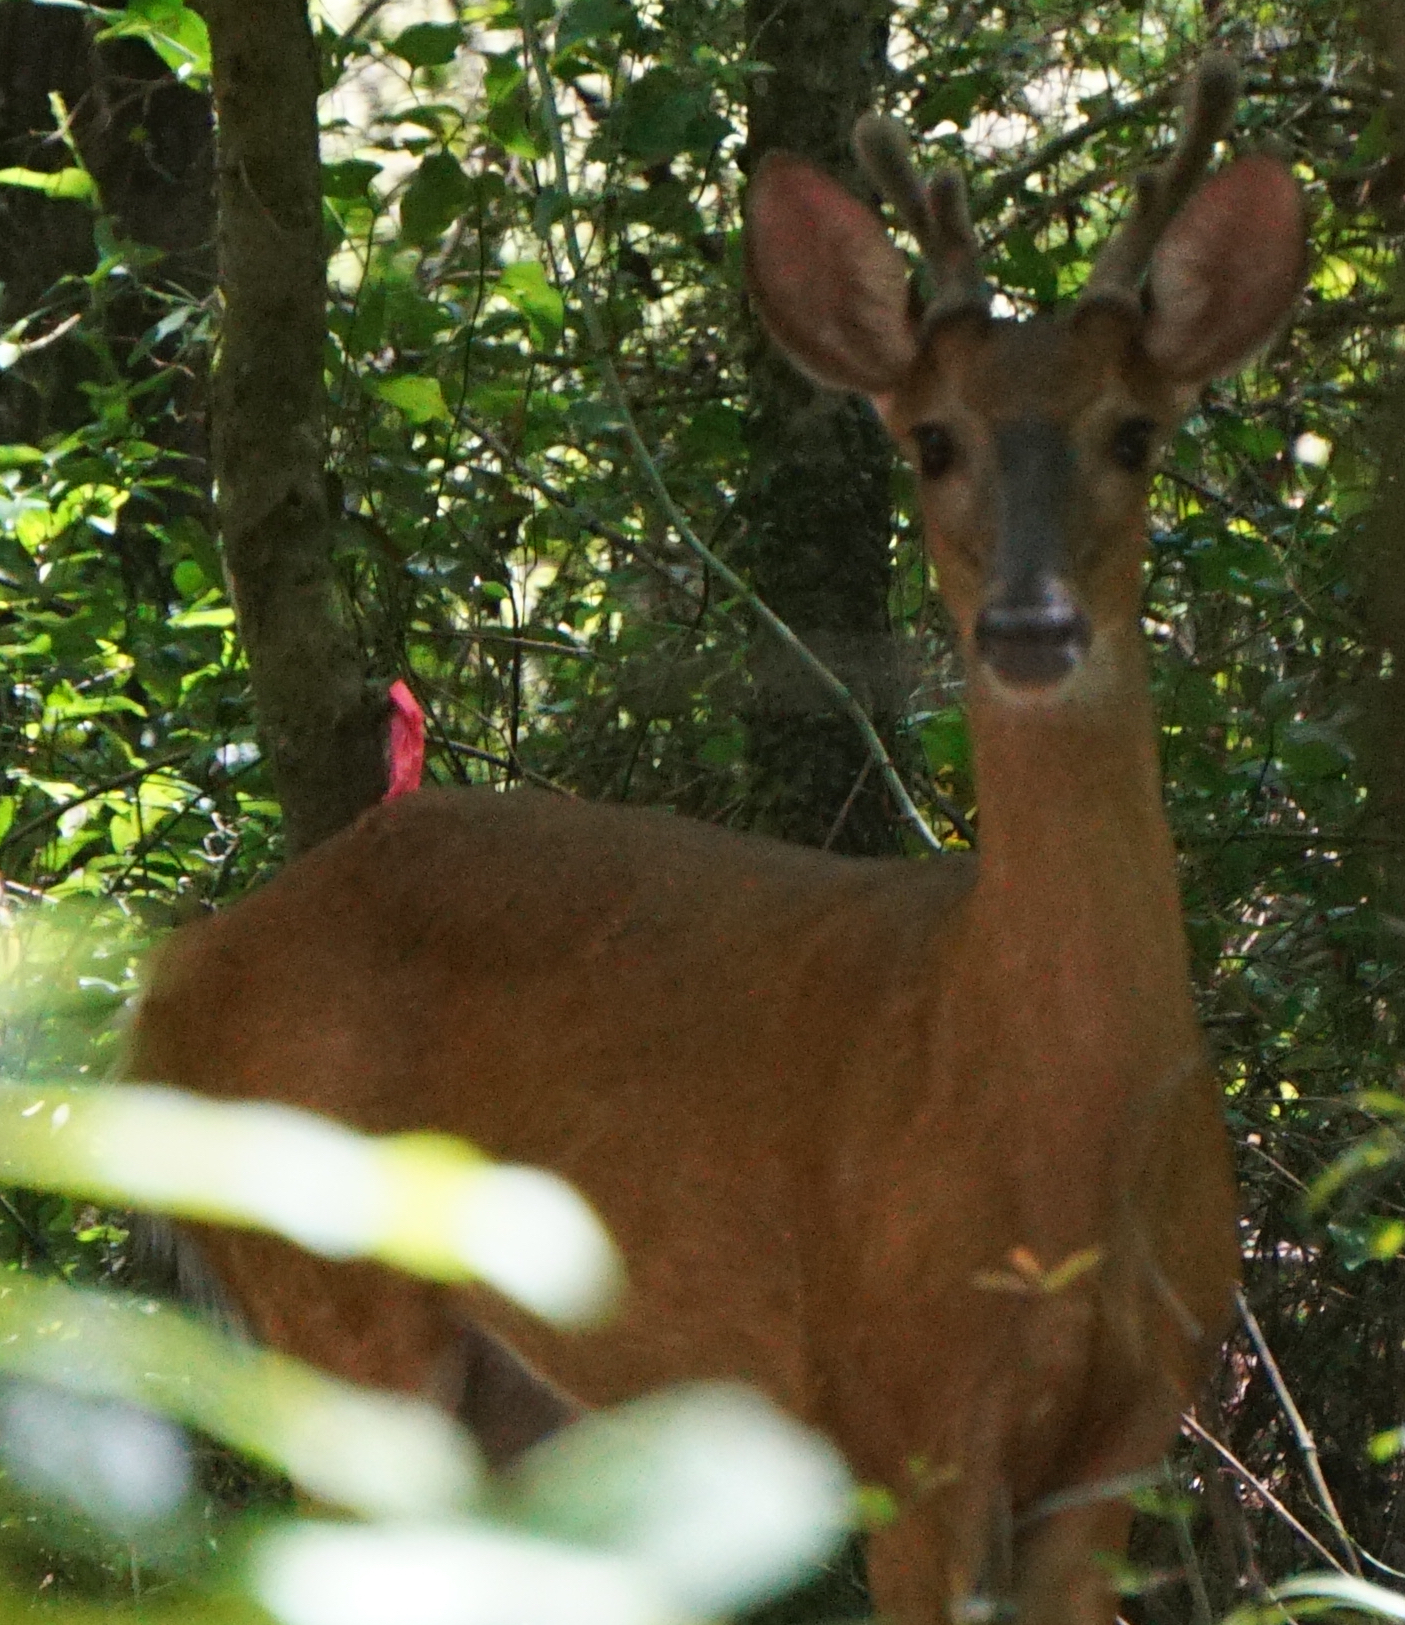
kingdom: Animalia
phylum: Chordata
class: Mammalia
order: Artiodactyla
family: Cervidae
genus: Odocoileus
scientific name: Odocoileus virginianus
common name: White-tailed deer
